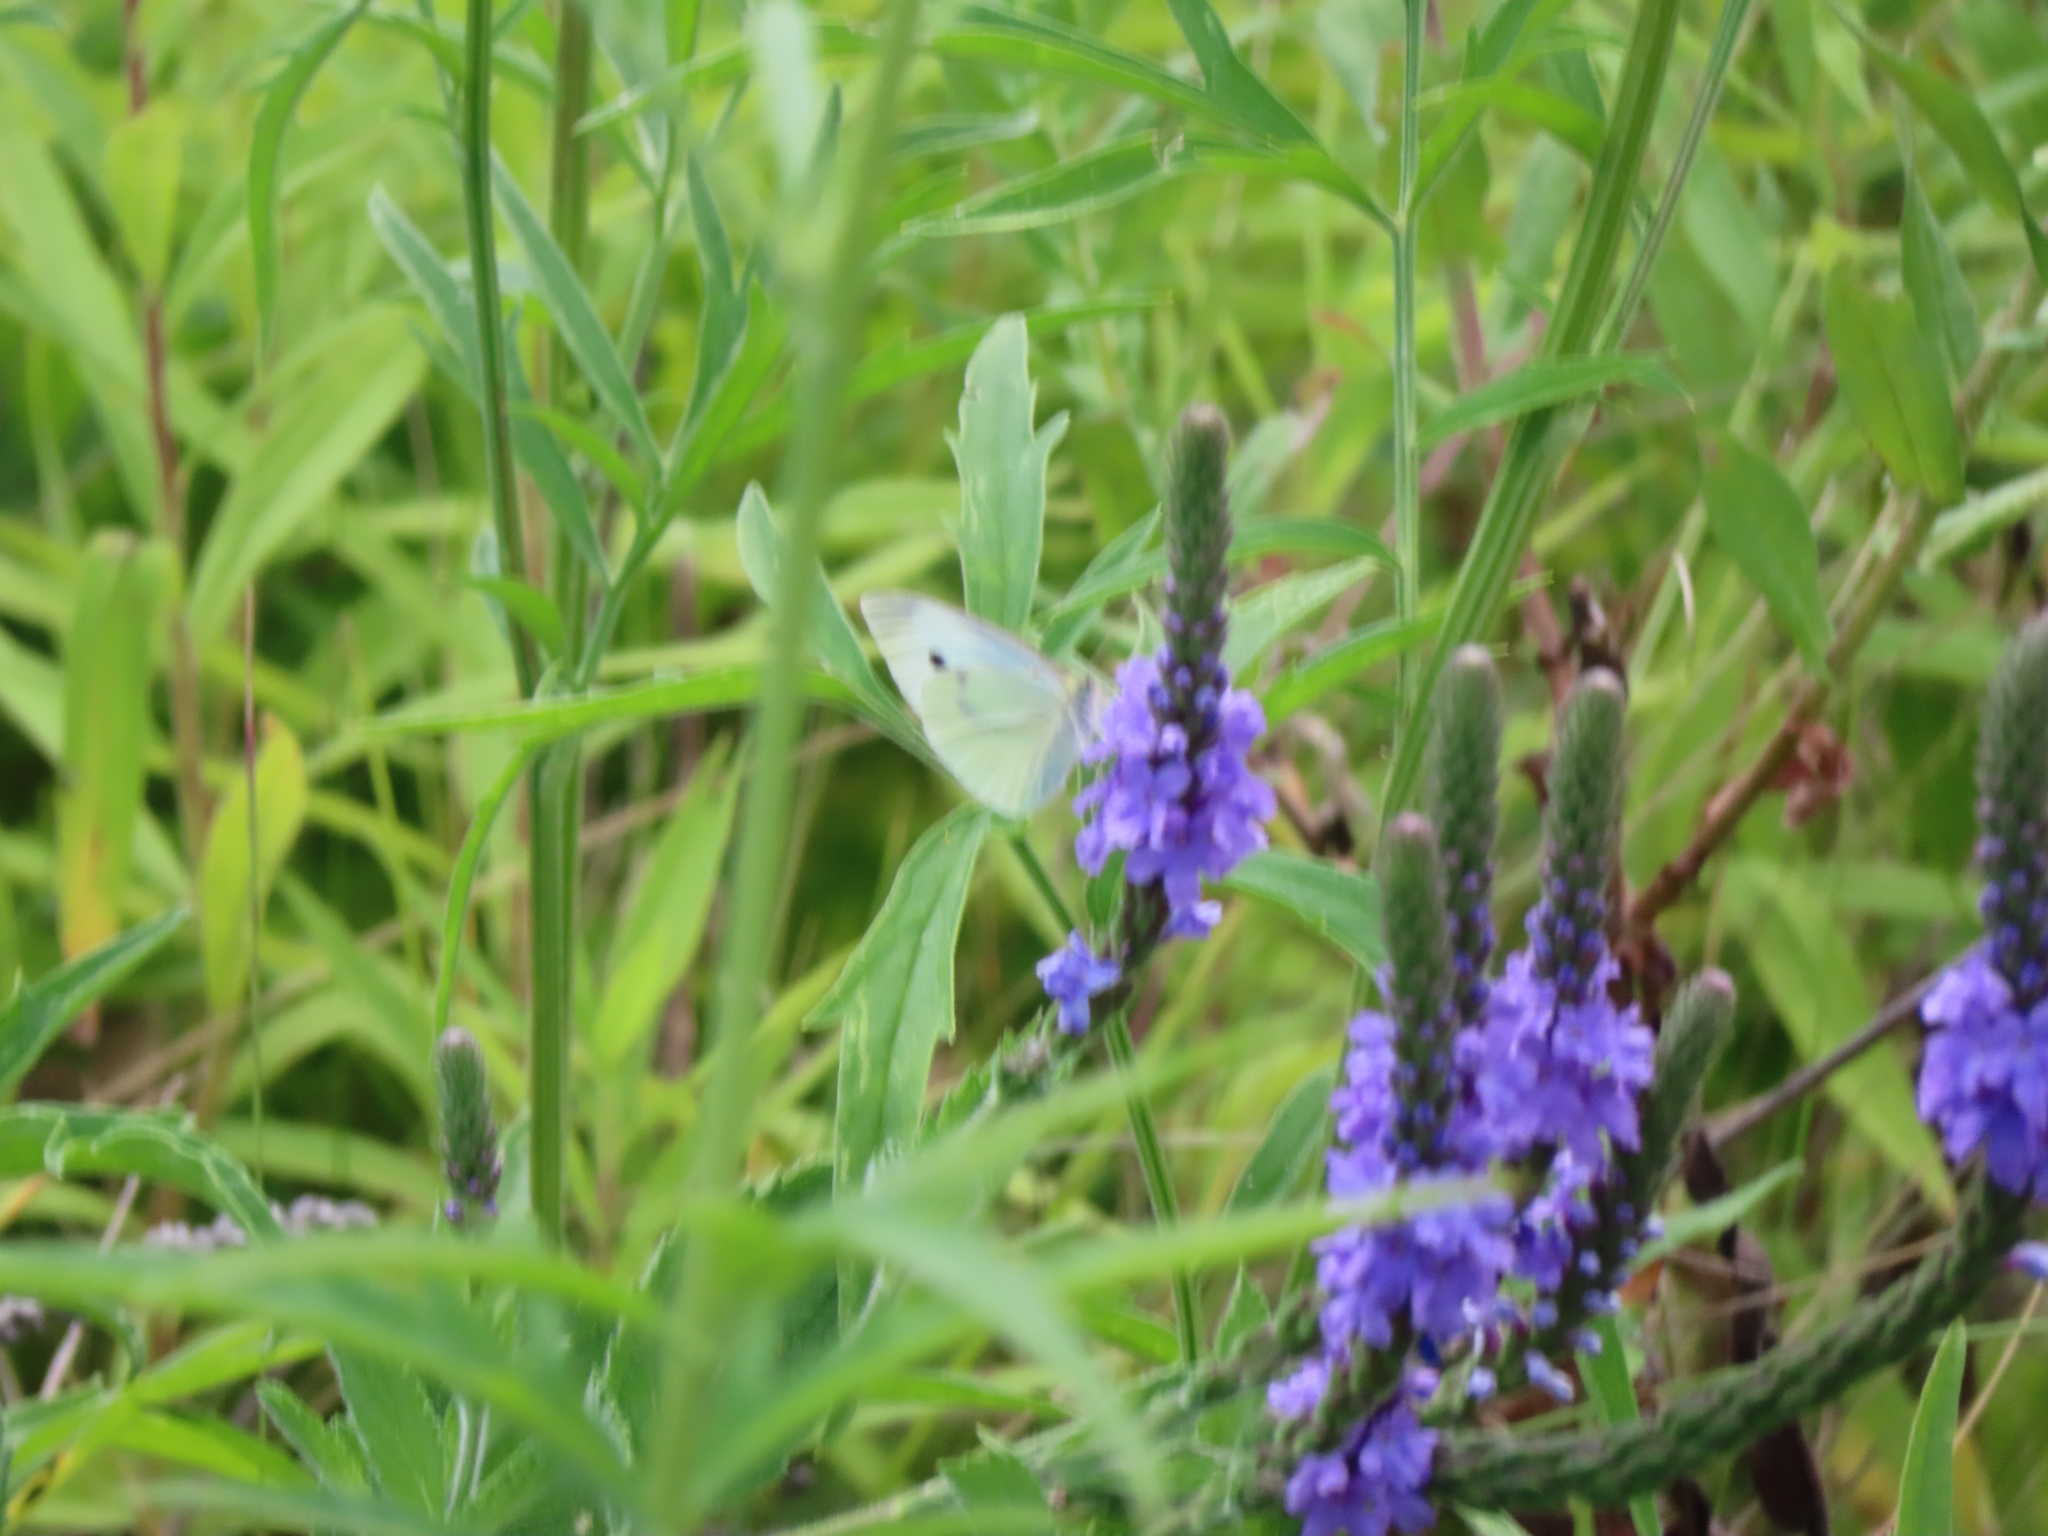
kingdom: Animalia
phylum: Arthropoda
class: Insecta
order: Lepidoptera
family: Pieridae
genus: Pieris
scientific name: Pieris rapae
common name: Small white
